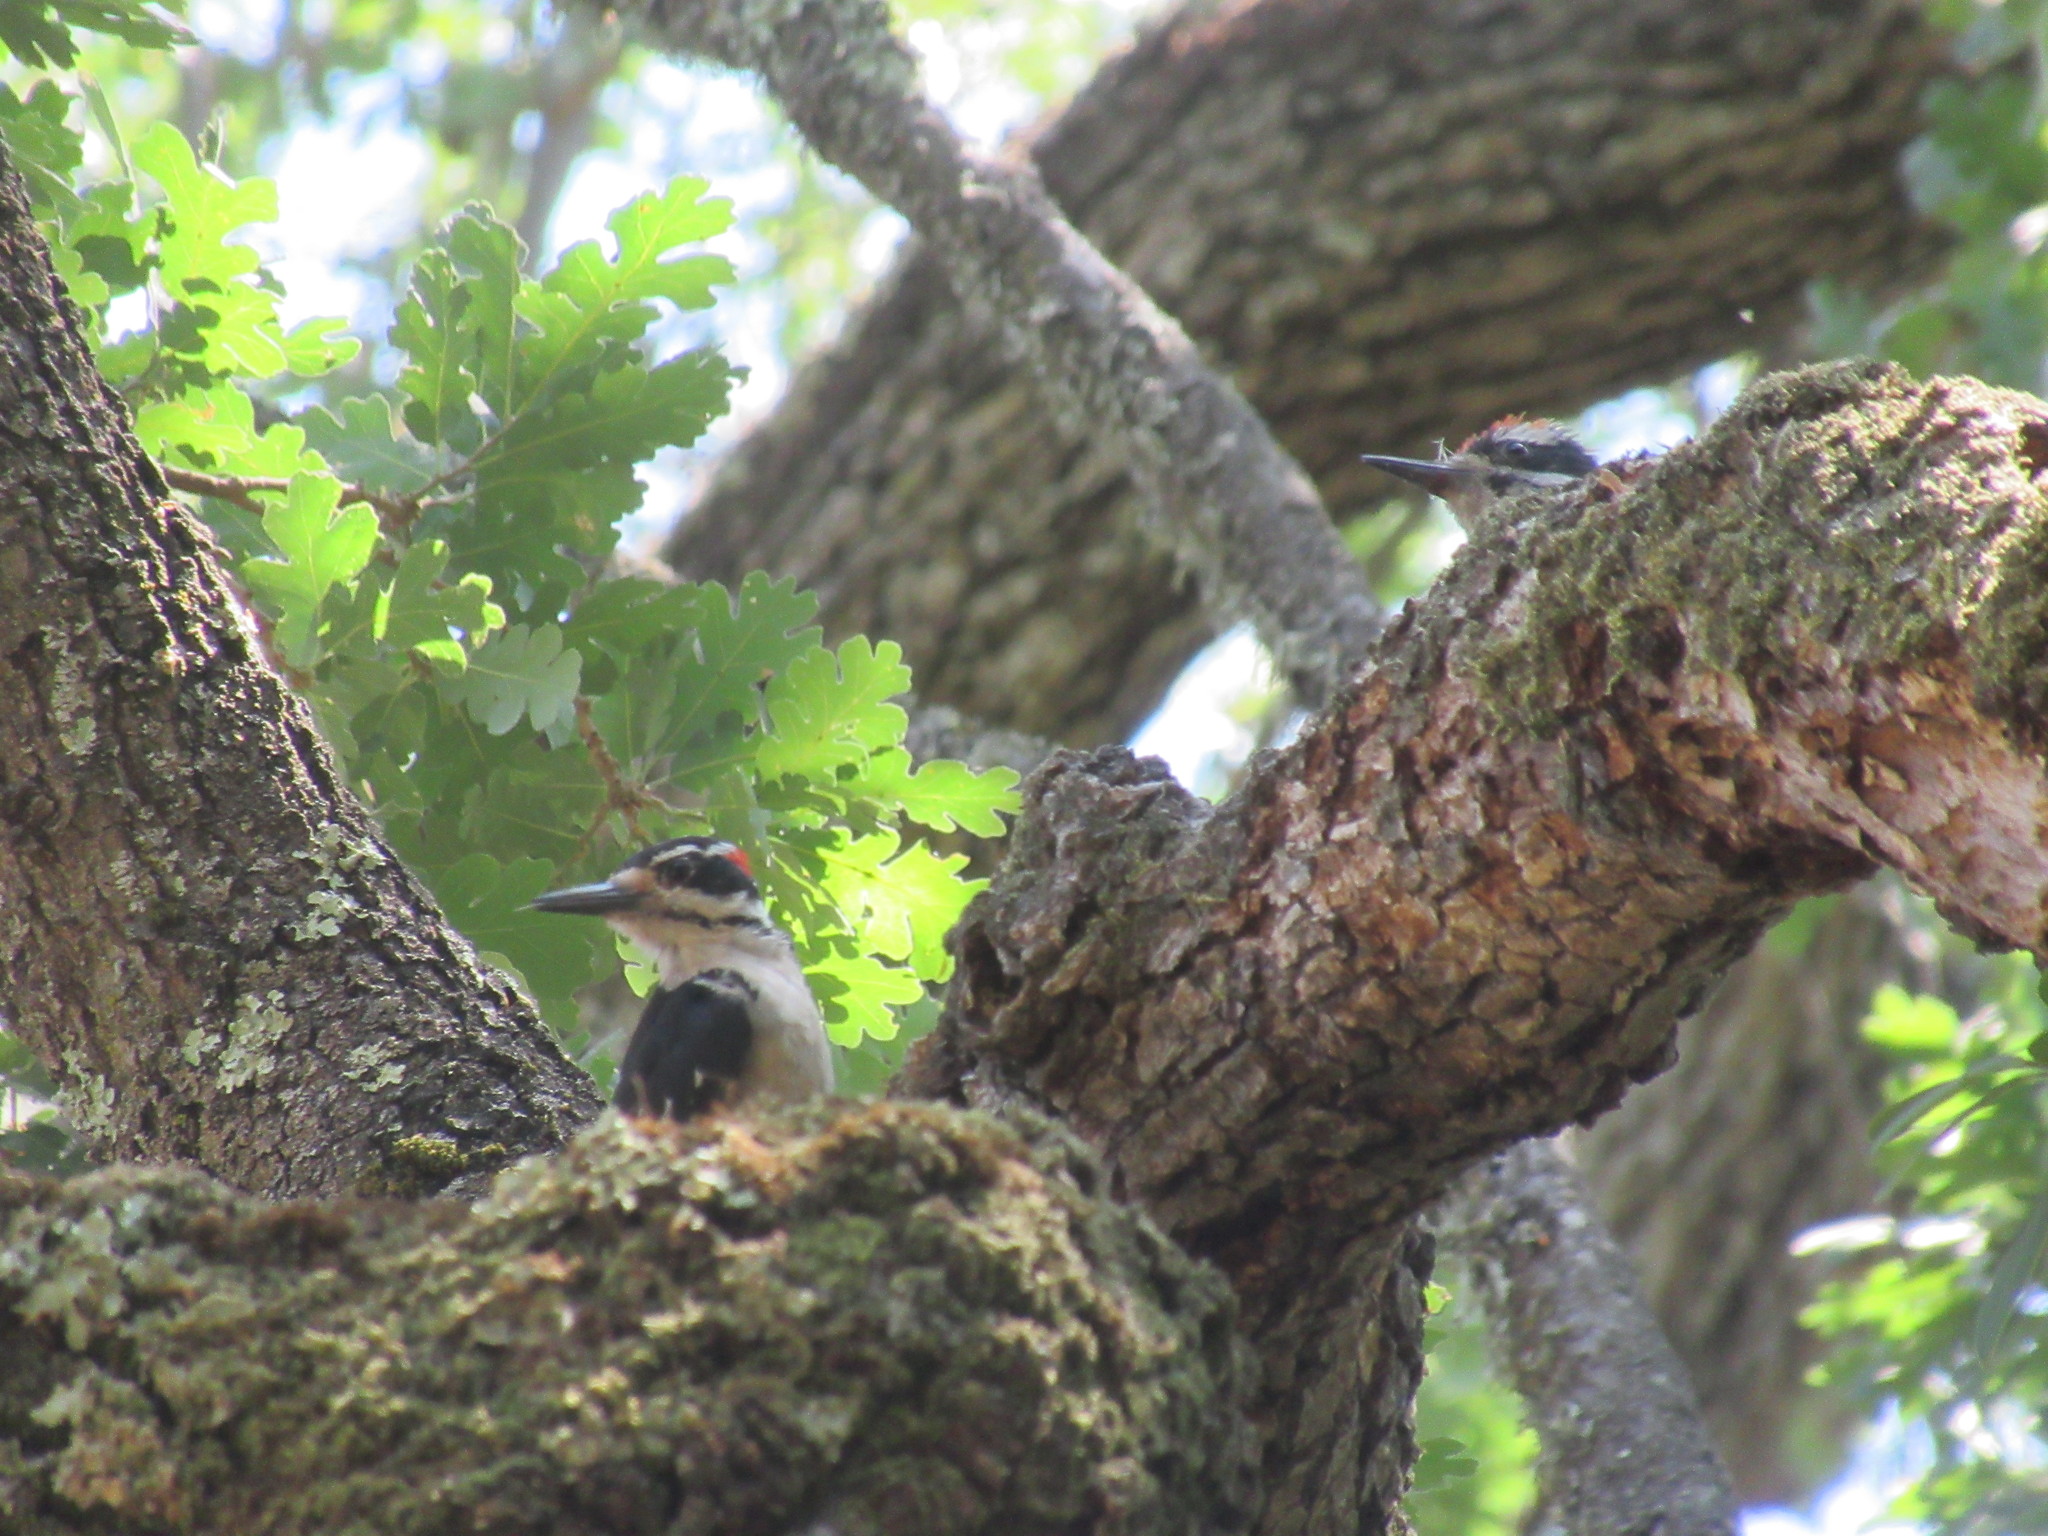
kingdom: Animalia
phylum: Chordata
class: Aves
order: Piciformes
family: Picidae
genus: Leuconotopicus
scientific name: Leuconotopicus villosus
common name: Hairy woodpecker
